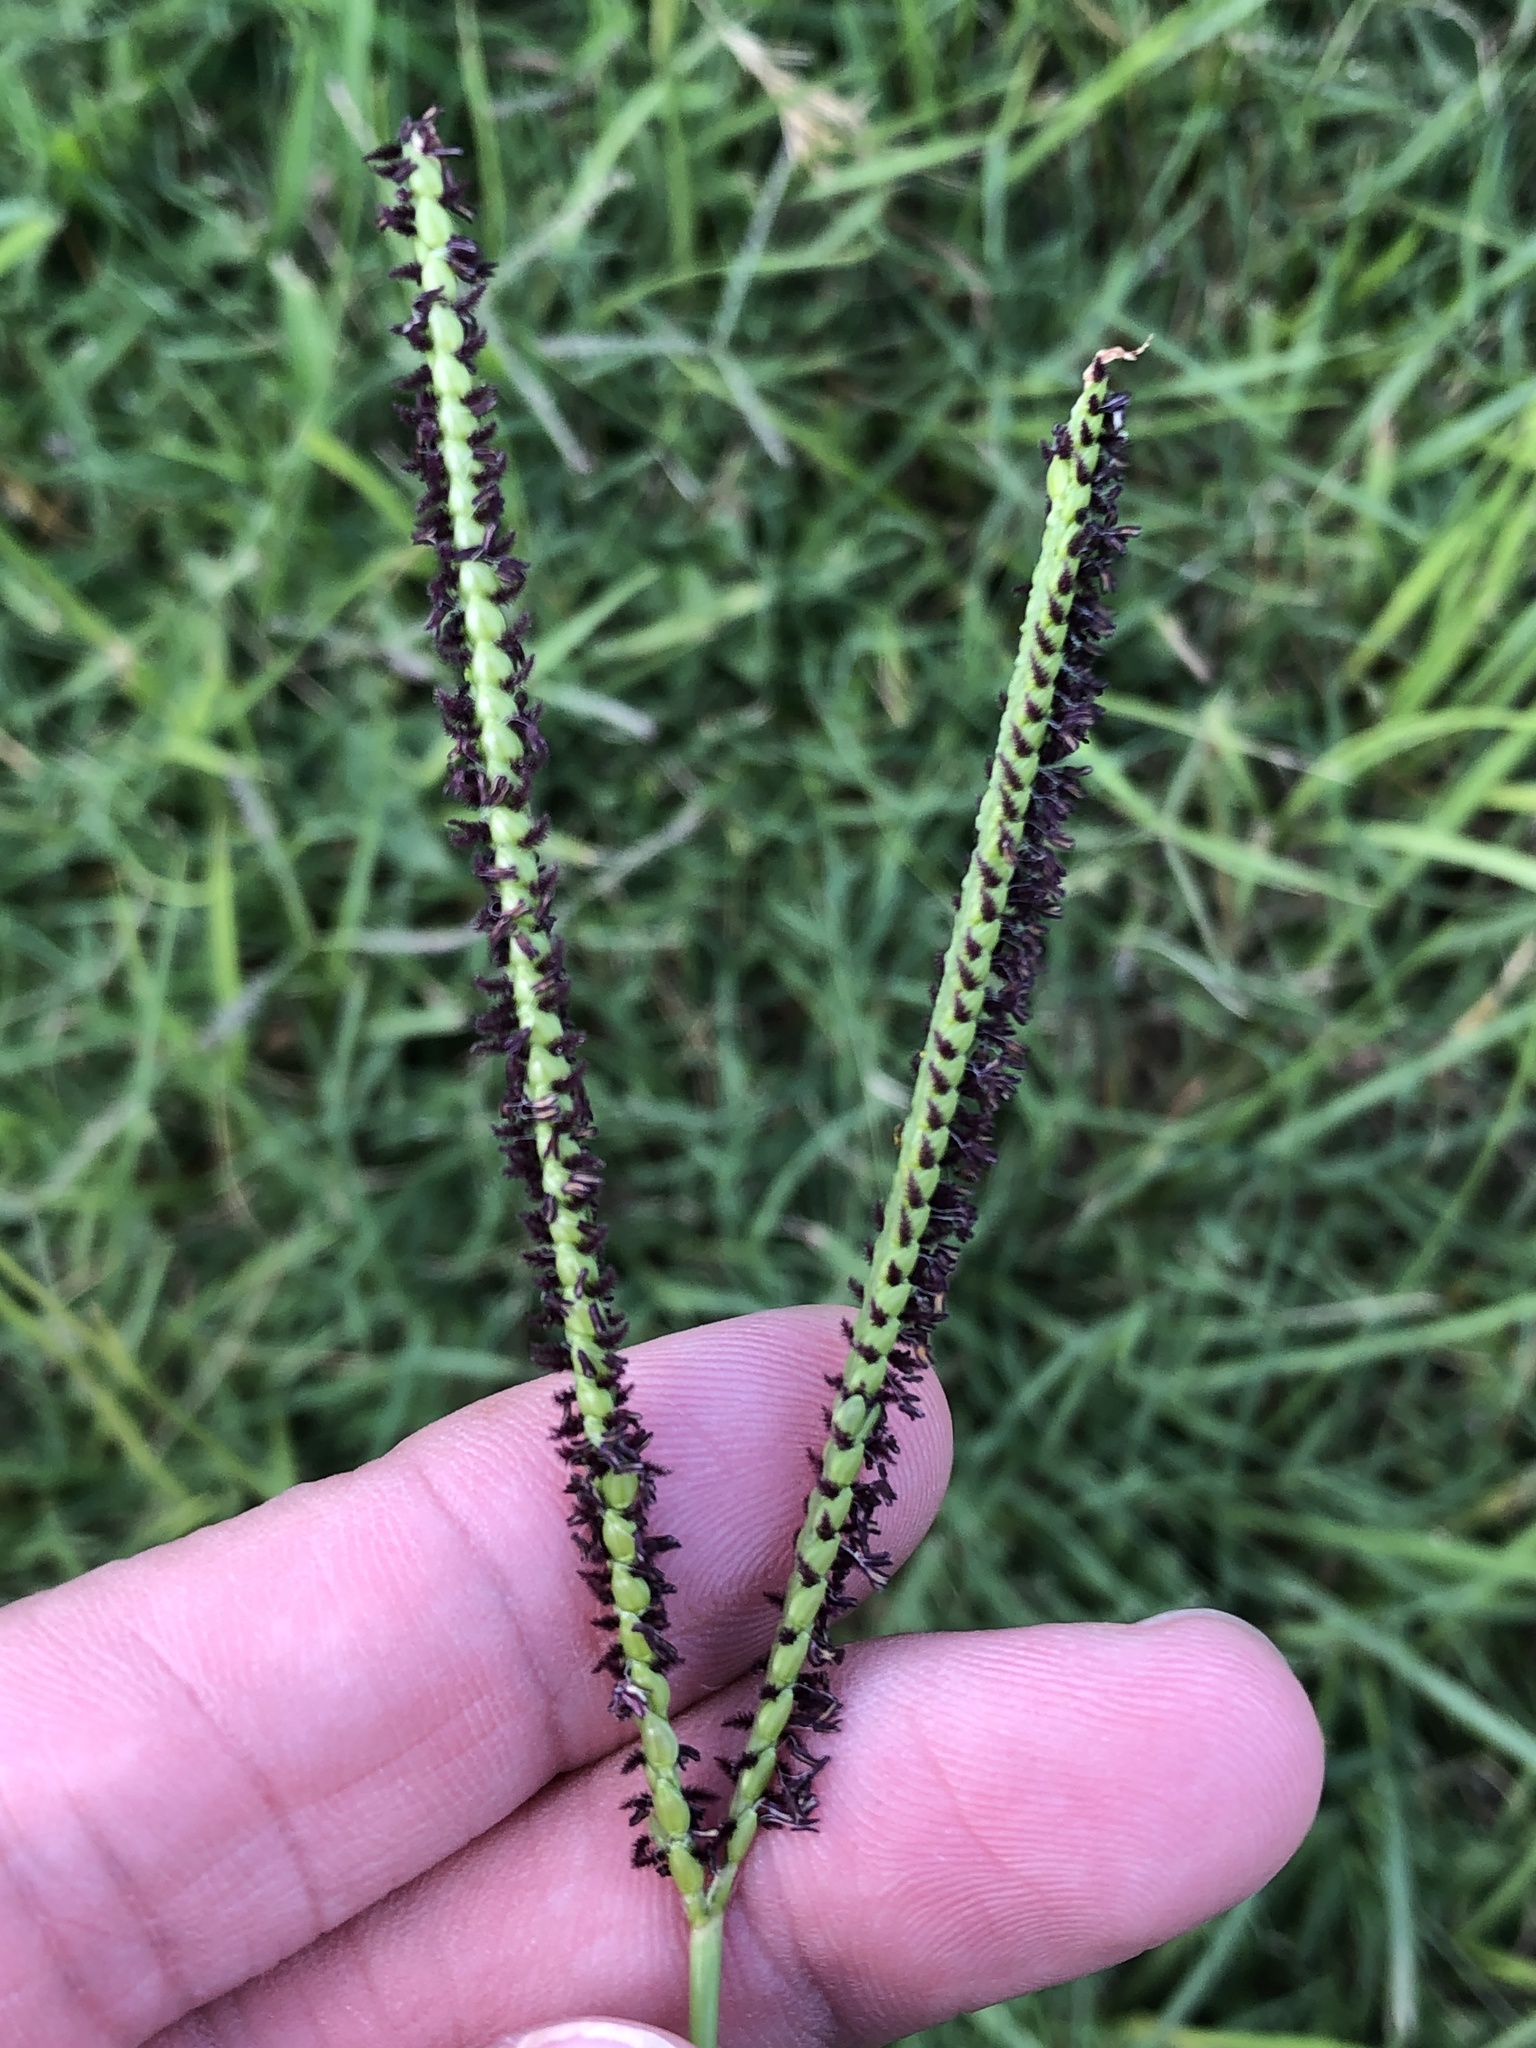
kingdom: Plantae
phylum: Tracheophyta
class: Liliopsida
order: Poales
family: Poaceae
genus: Paspalum
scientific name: Paspalum notatum
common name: Bahiagrass
